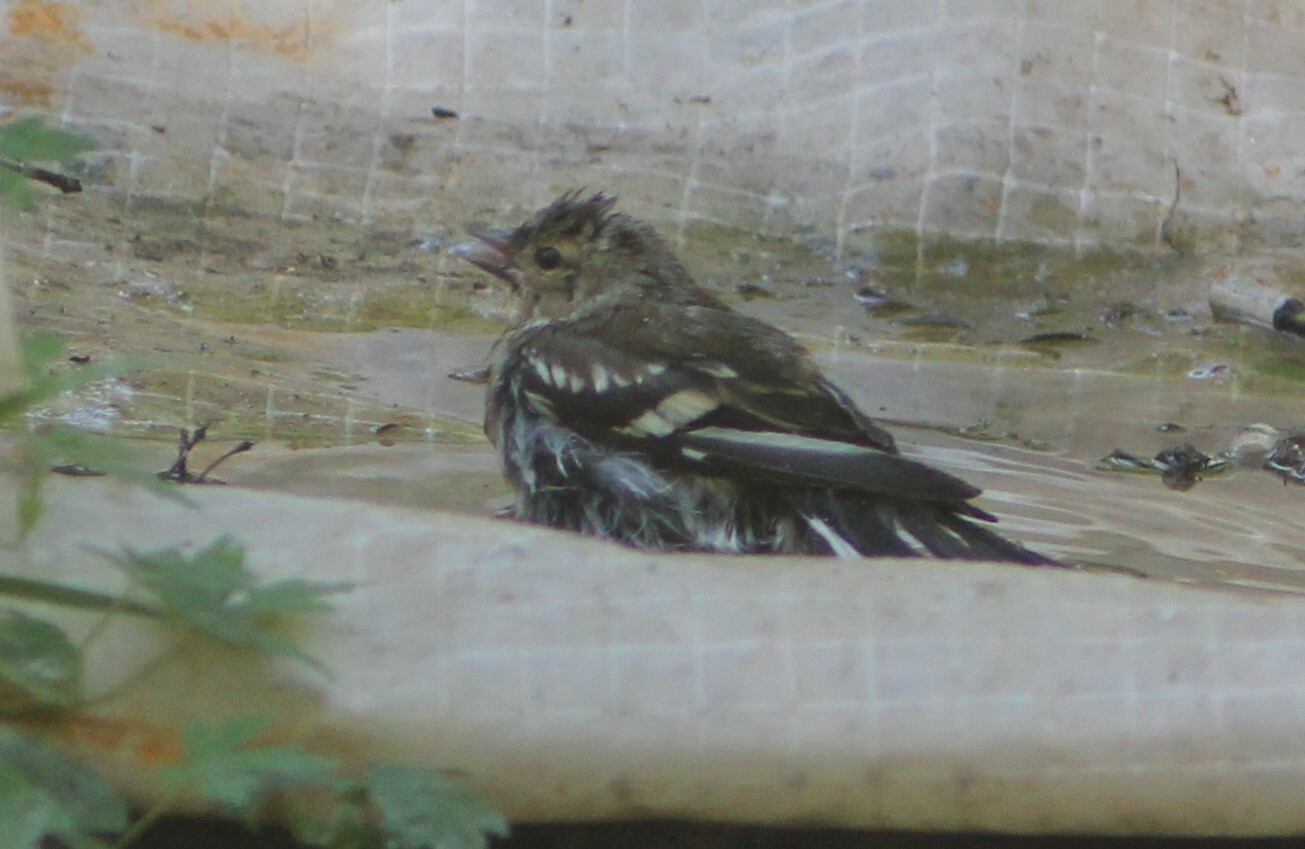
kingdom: Animalia
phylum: Chordata
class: Aves
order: Passeriformes
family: Fringillidae
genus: Fringilla
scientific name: Fringilla coelebs
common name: Common chaffinch
